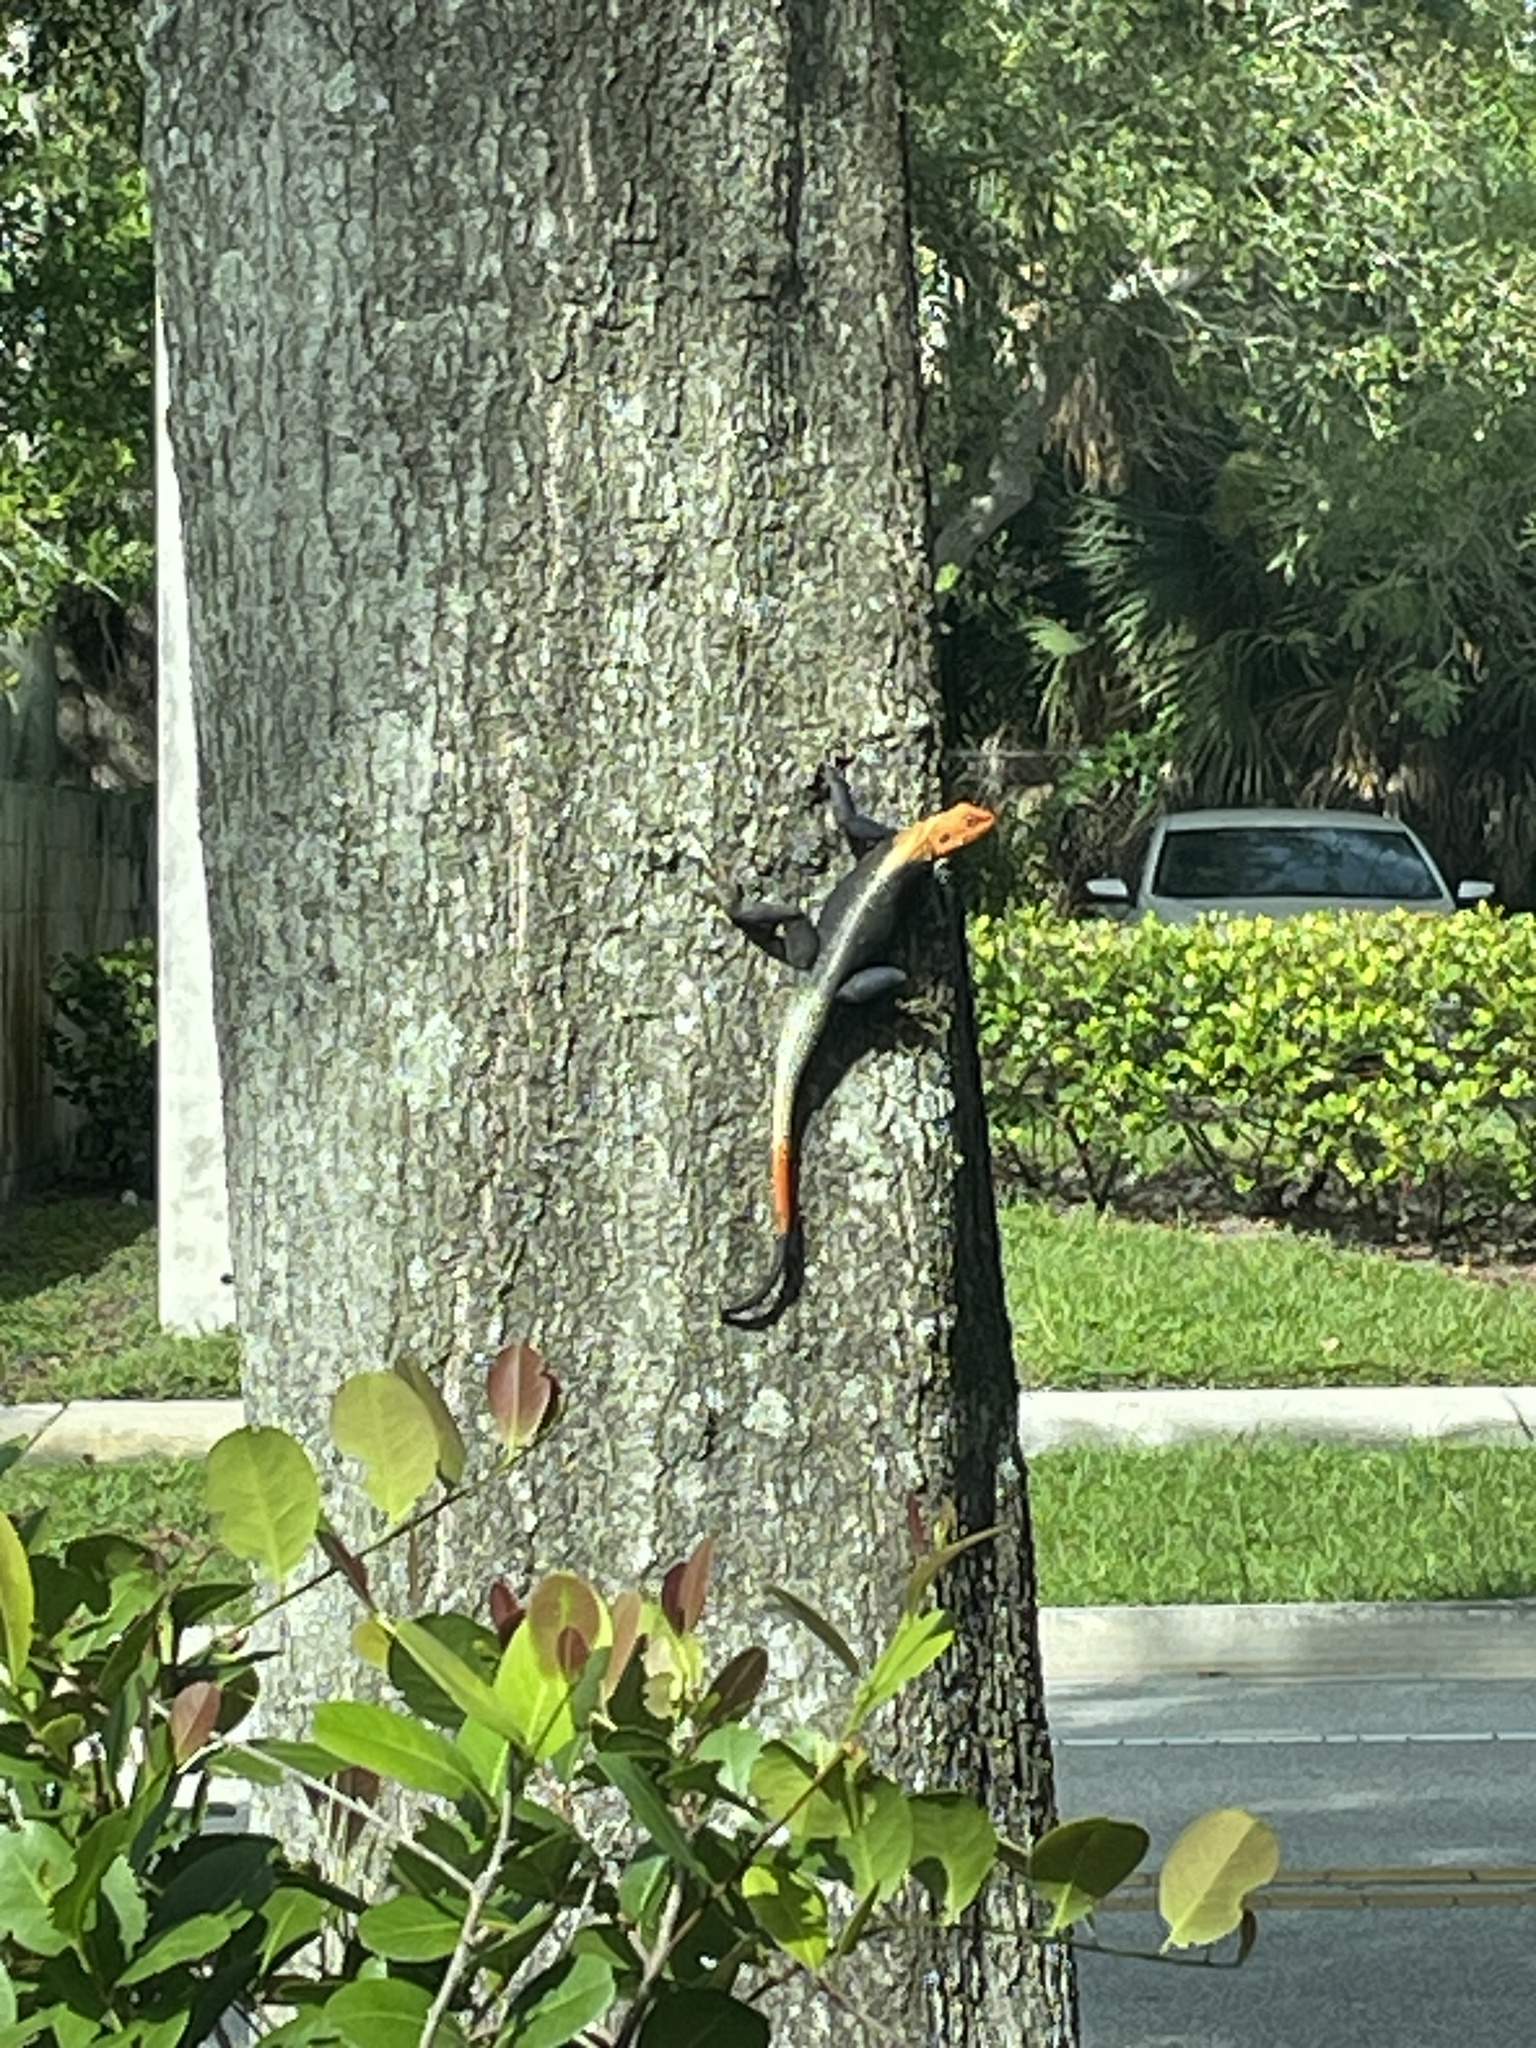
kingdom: Animalia
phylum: Chordata
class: Squamata
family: Agamidae
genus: Agama
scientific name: Agama picticauda
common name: Red-headed agama
